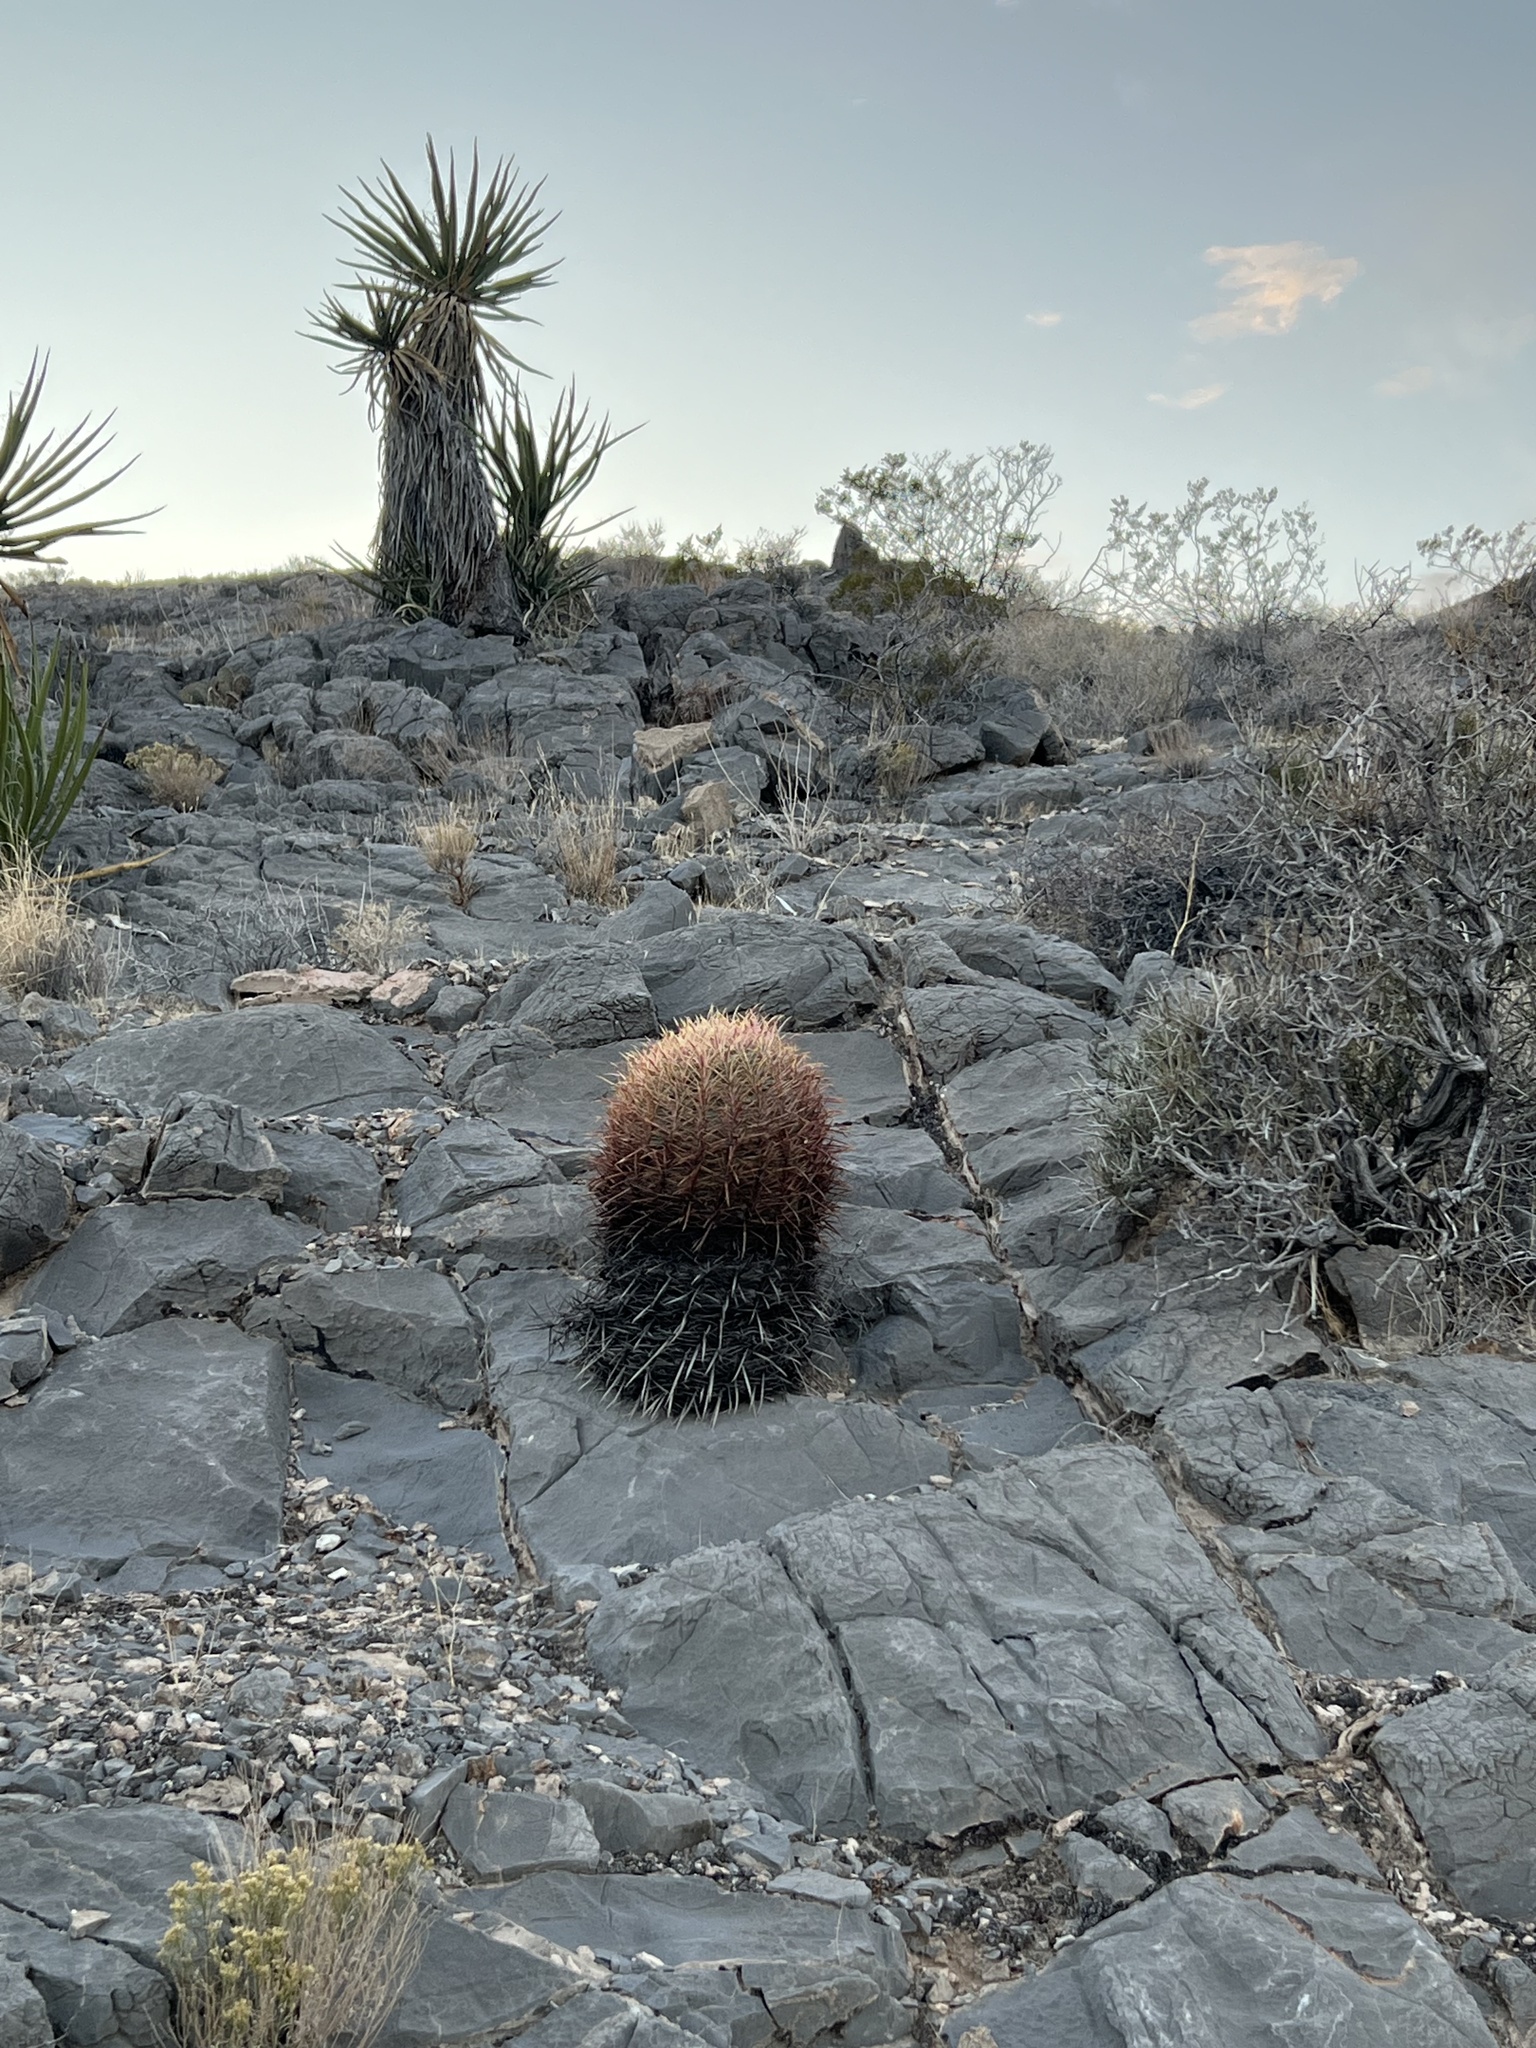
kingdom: Plantae
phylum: Tracheophyta
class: Magnoliopsida
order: Caryophyllales
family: Cactaceae
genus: Ferocactus
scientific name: Ferocactus cylindraceus
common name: California barrel cactus
